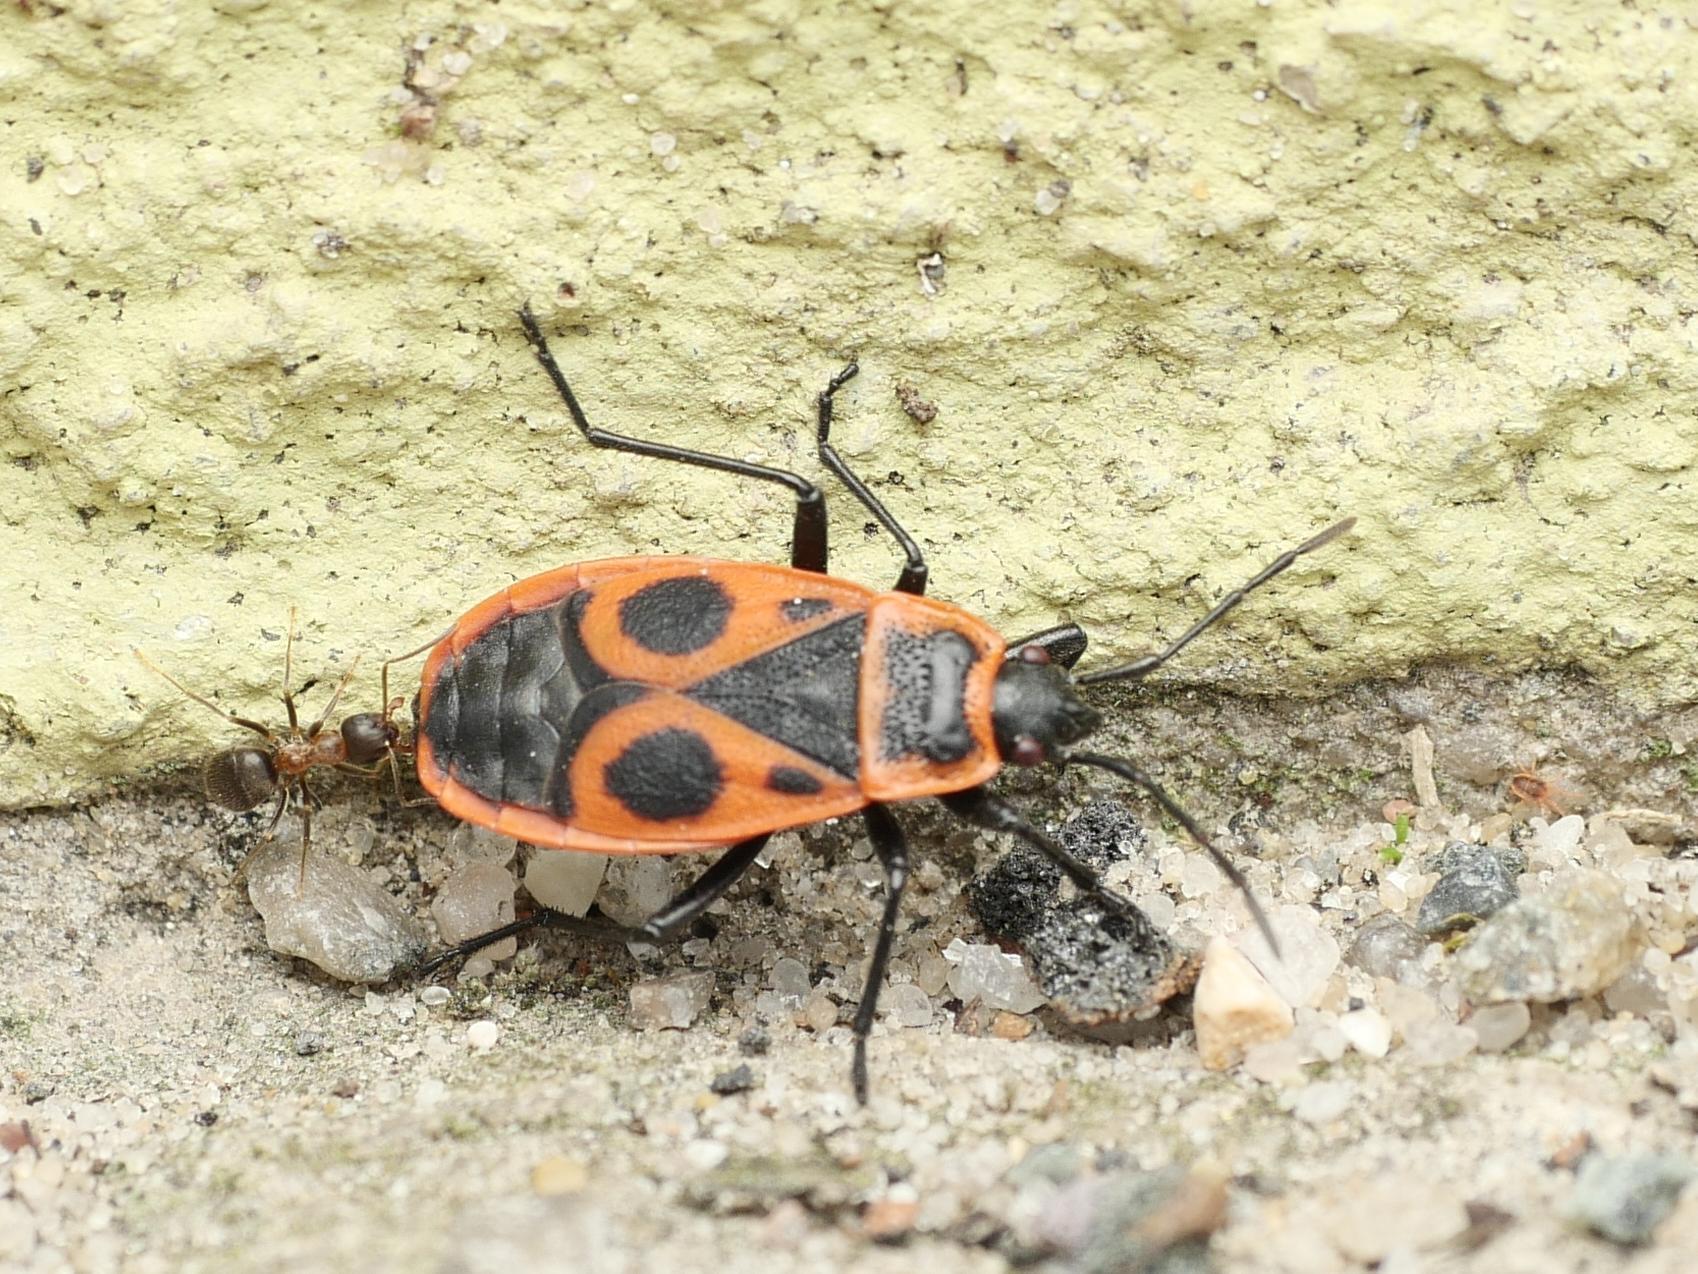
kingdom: Animalia
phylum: Arthropoda
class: Insecta
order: Hemiptera
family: Pyrrhocoridae
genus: Pyrrhocoris
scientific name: Pyrrhocoris apterus
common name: Firebug
